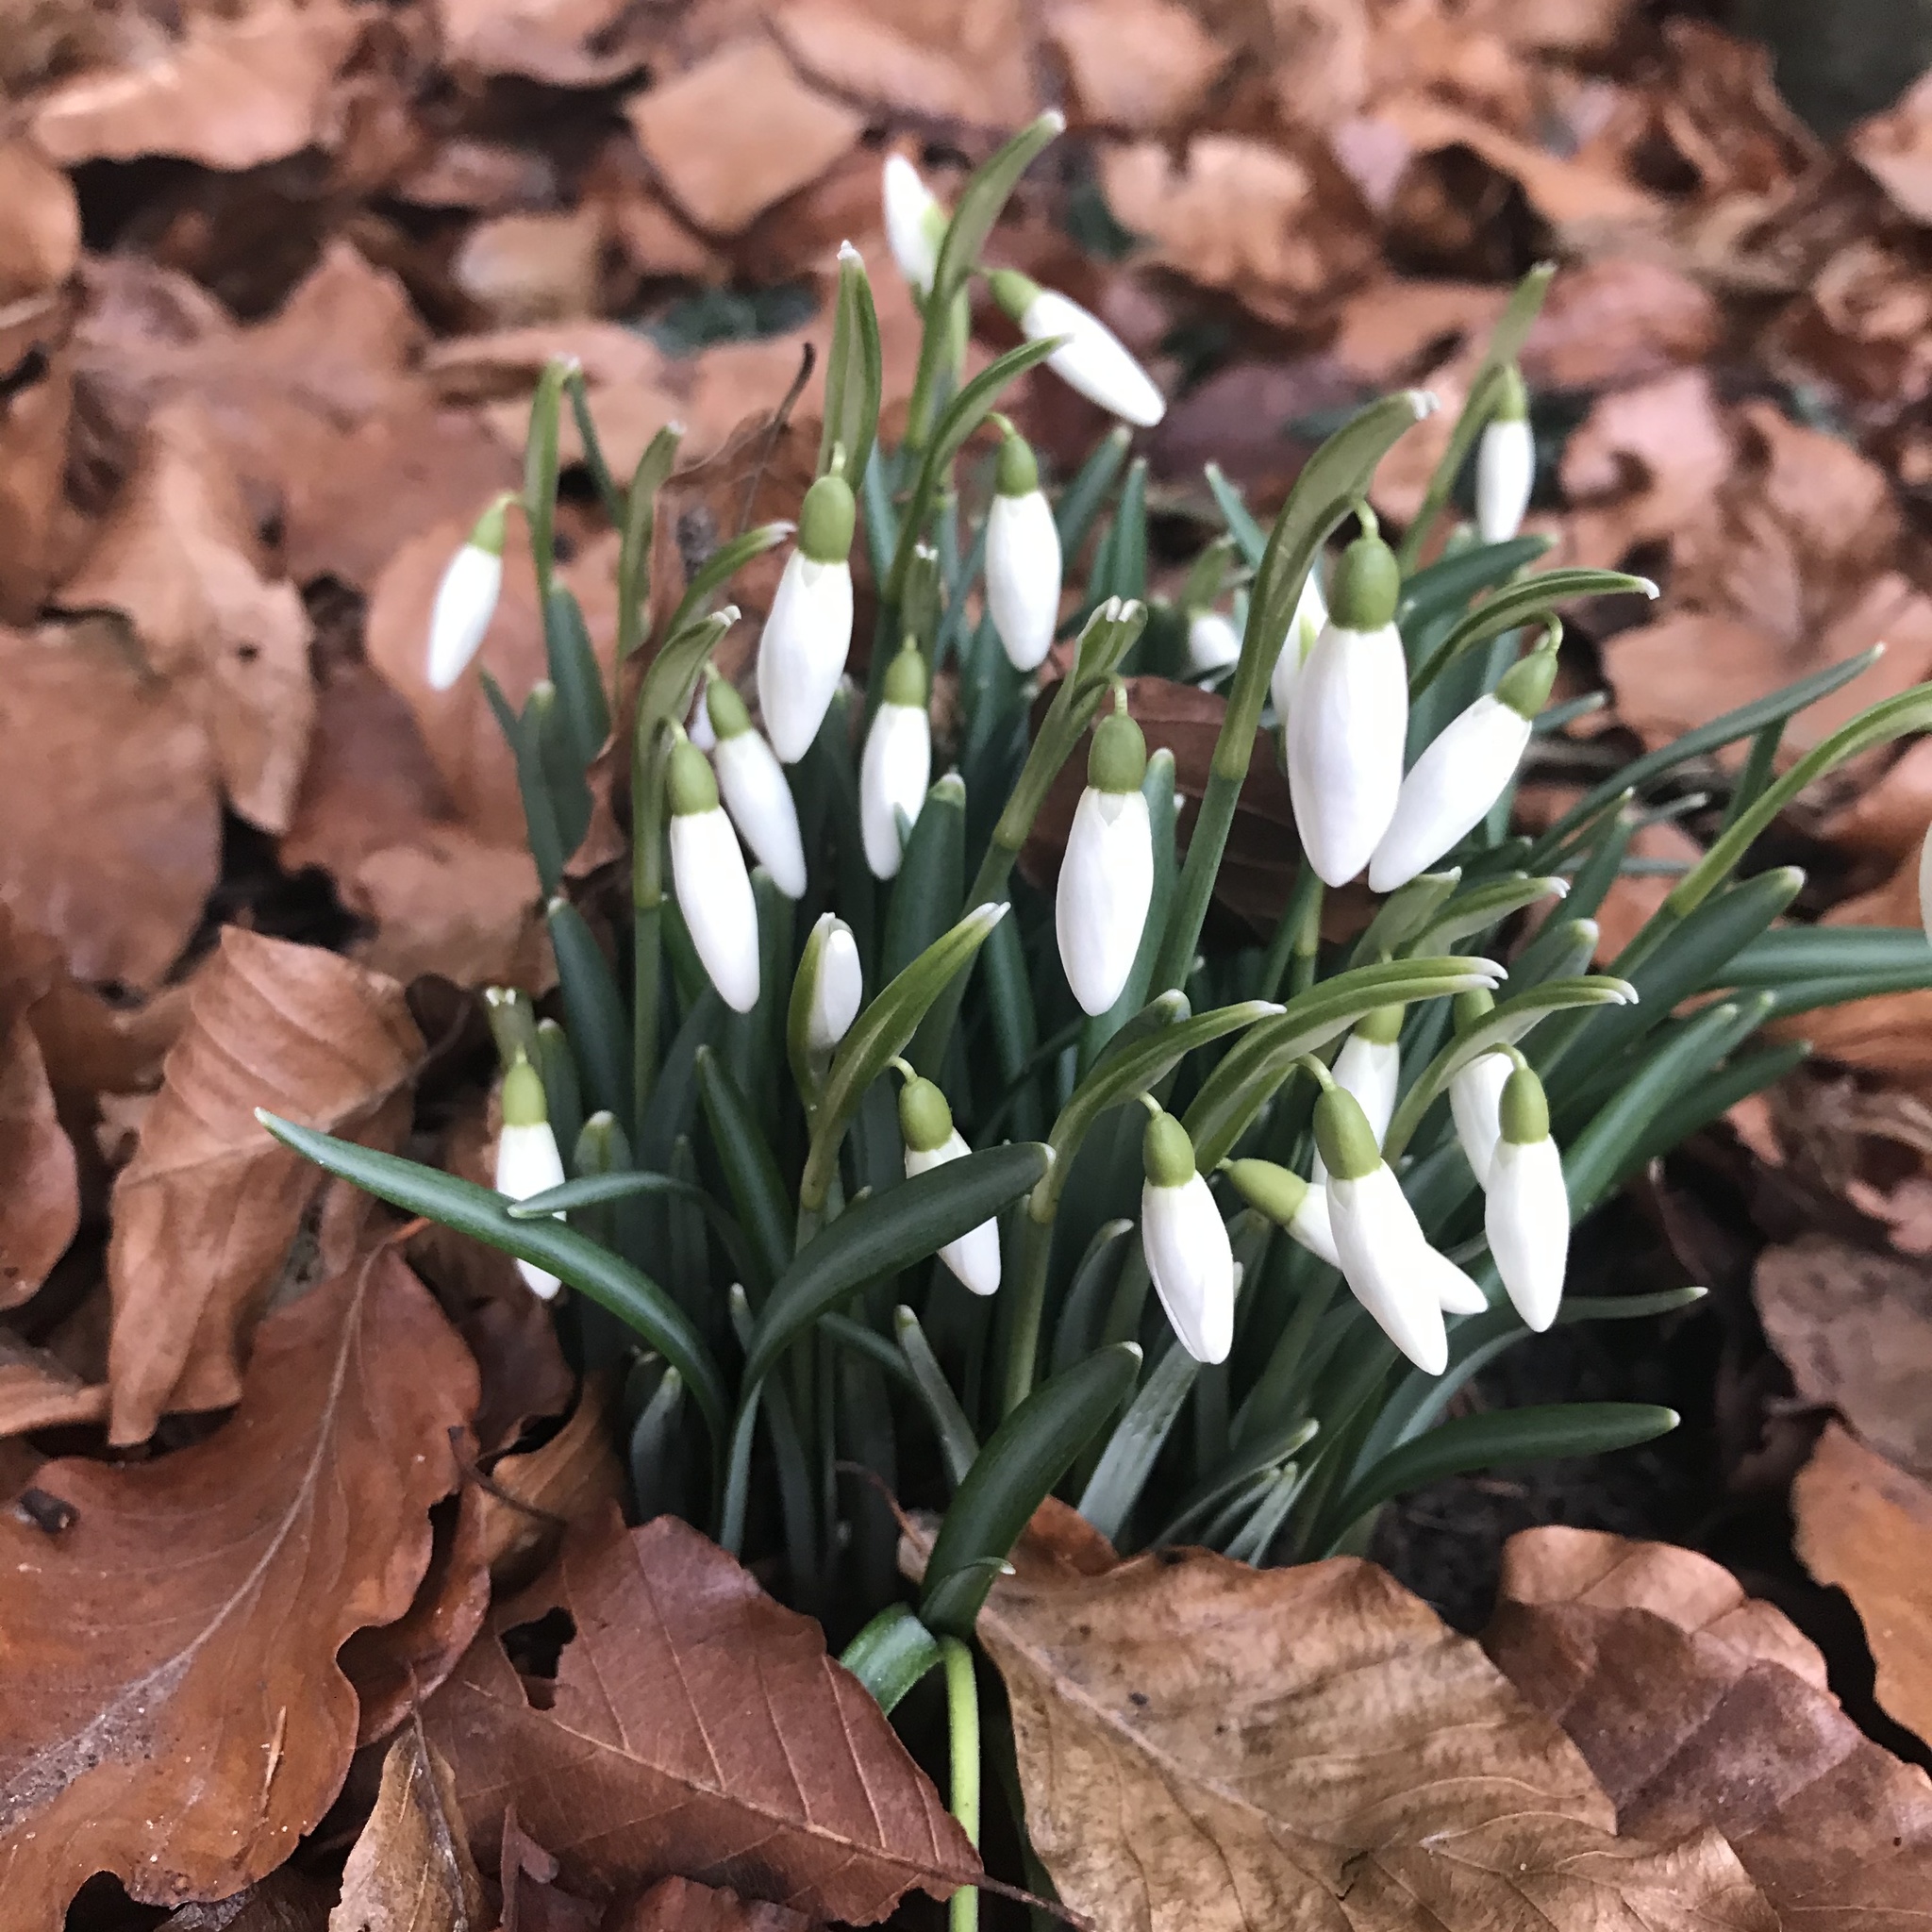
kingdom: Plantae
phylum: Tracheophyta
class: Liliopsida
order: Asparagales
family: Amaryllidaceae
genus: Galanthus
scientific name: Galanthus nivalis
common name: Snowdrop
